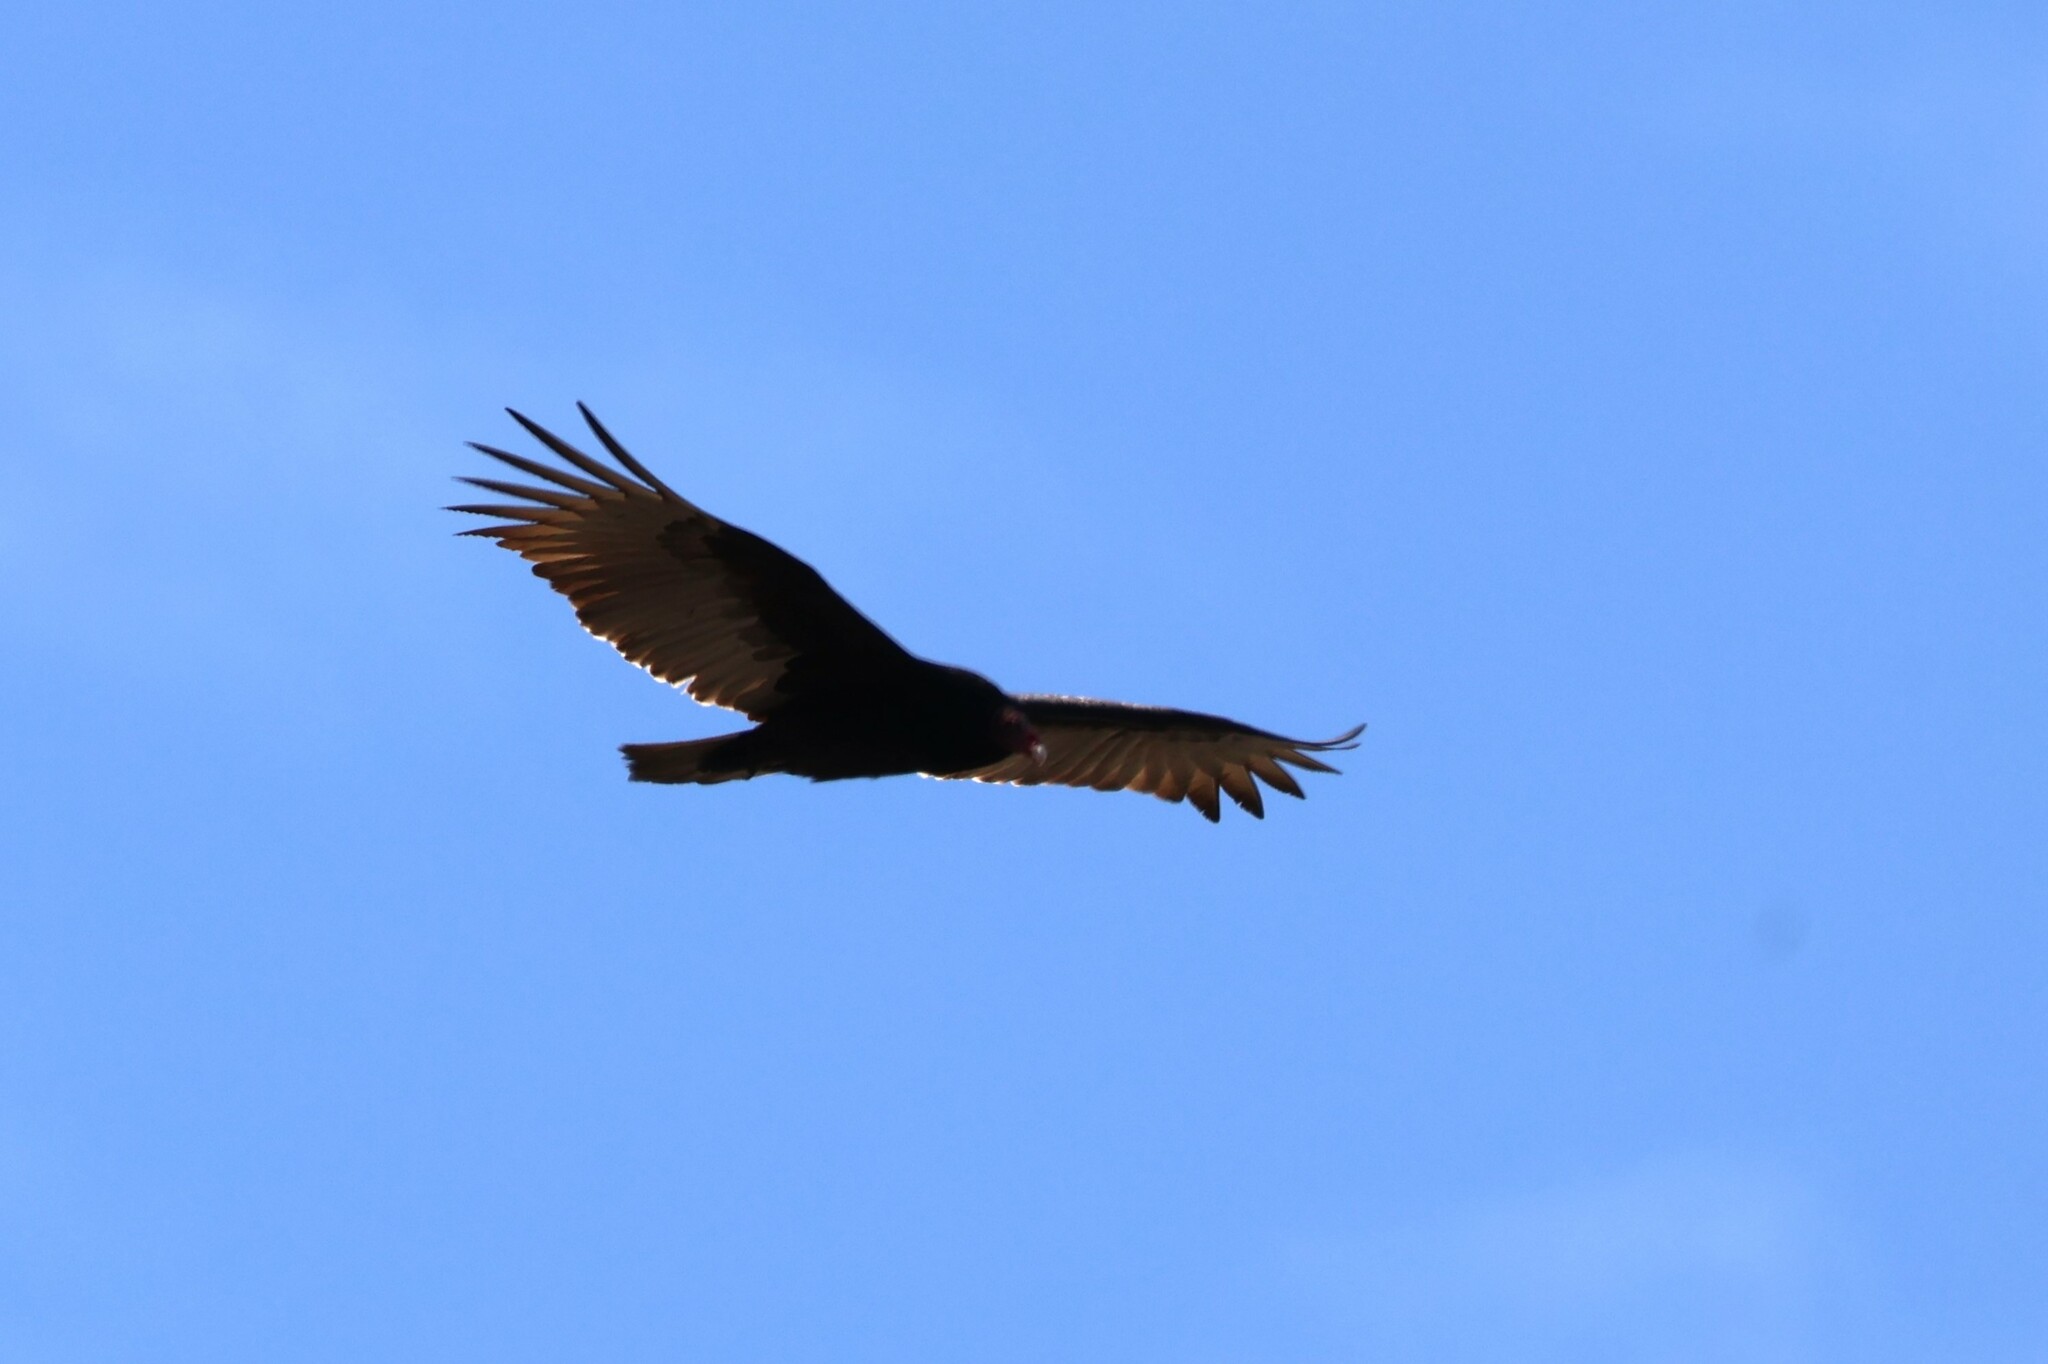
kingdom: Animalia
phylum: Chordata
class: Aves
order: Accipitriformes
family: Cathartidae
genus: Cathartes
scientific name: Cathartes aura
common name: Turkey vulture
